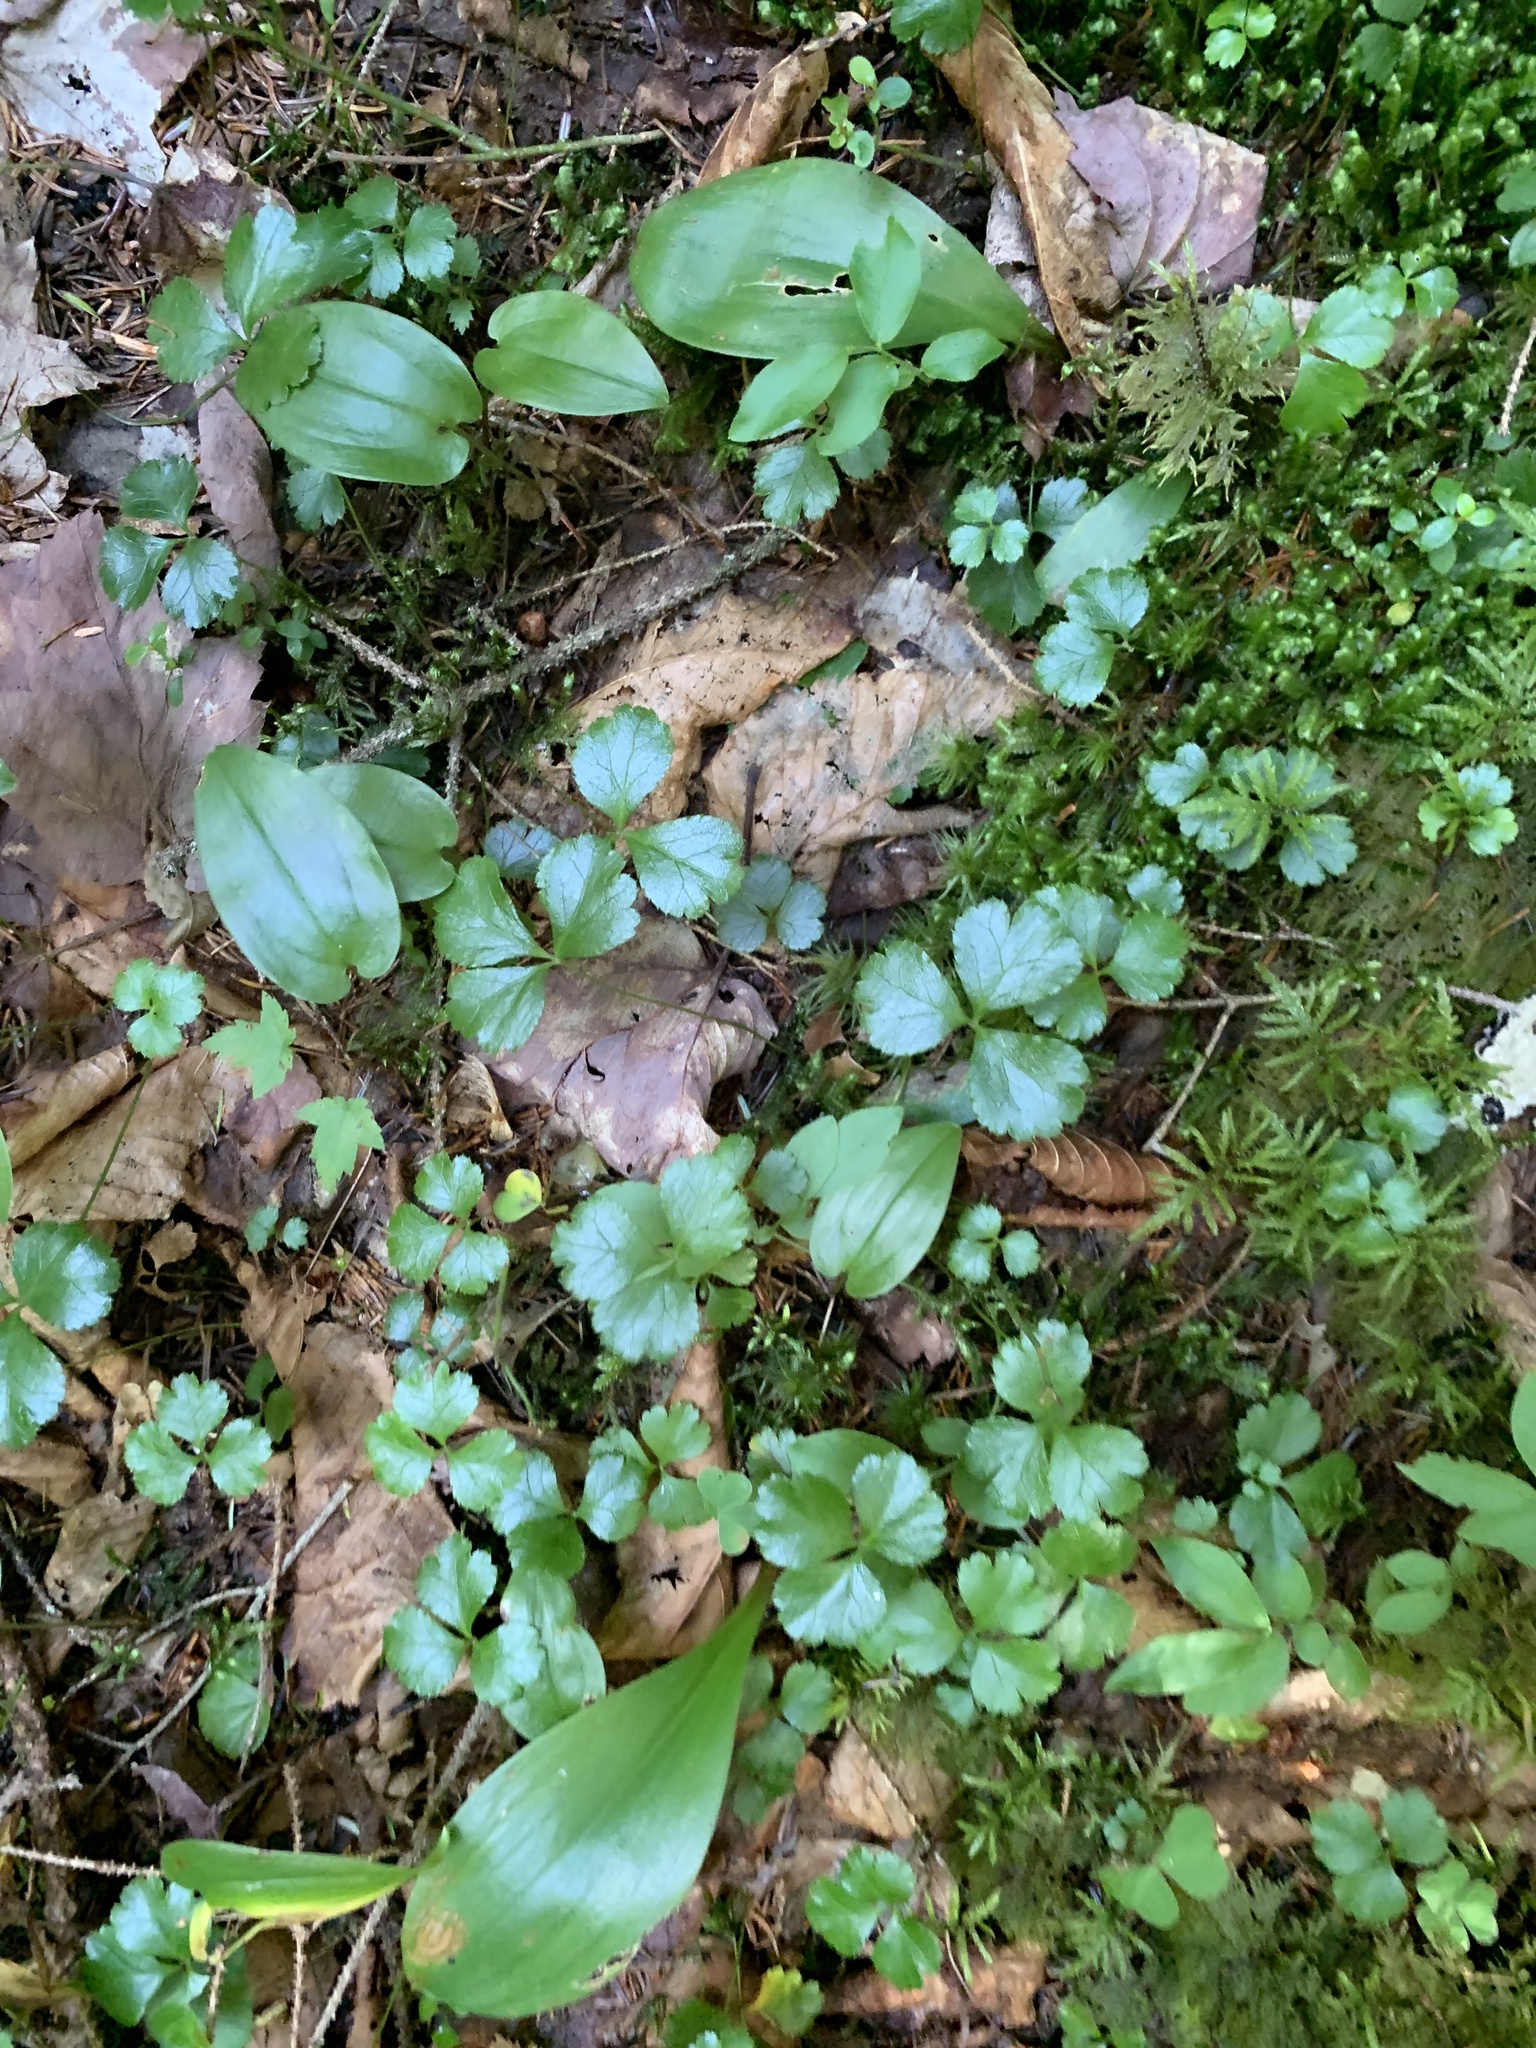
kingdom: Plantae
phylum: Tracheophyta
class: Magnoliopsida
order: Ranunculales
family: Ranunculaceae
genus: Coptis
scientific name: Coptis trifolia
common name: Canker-root
